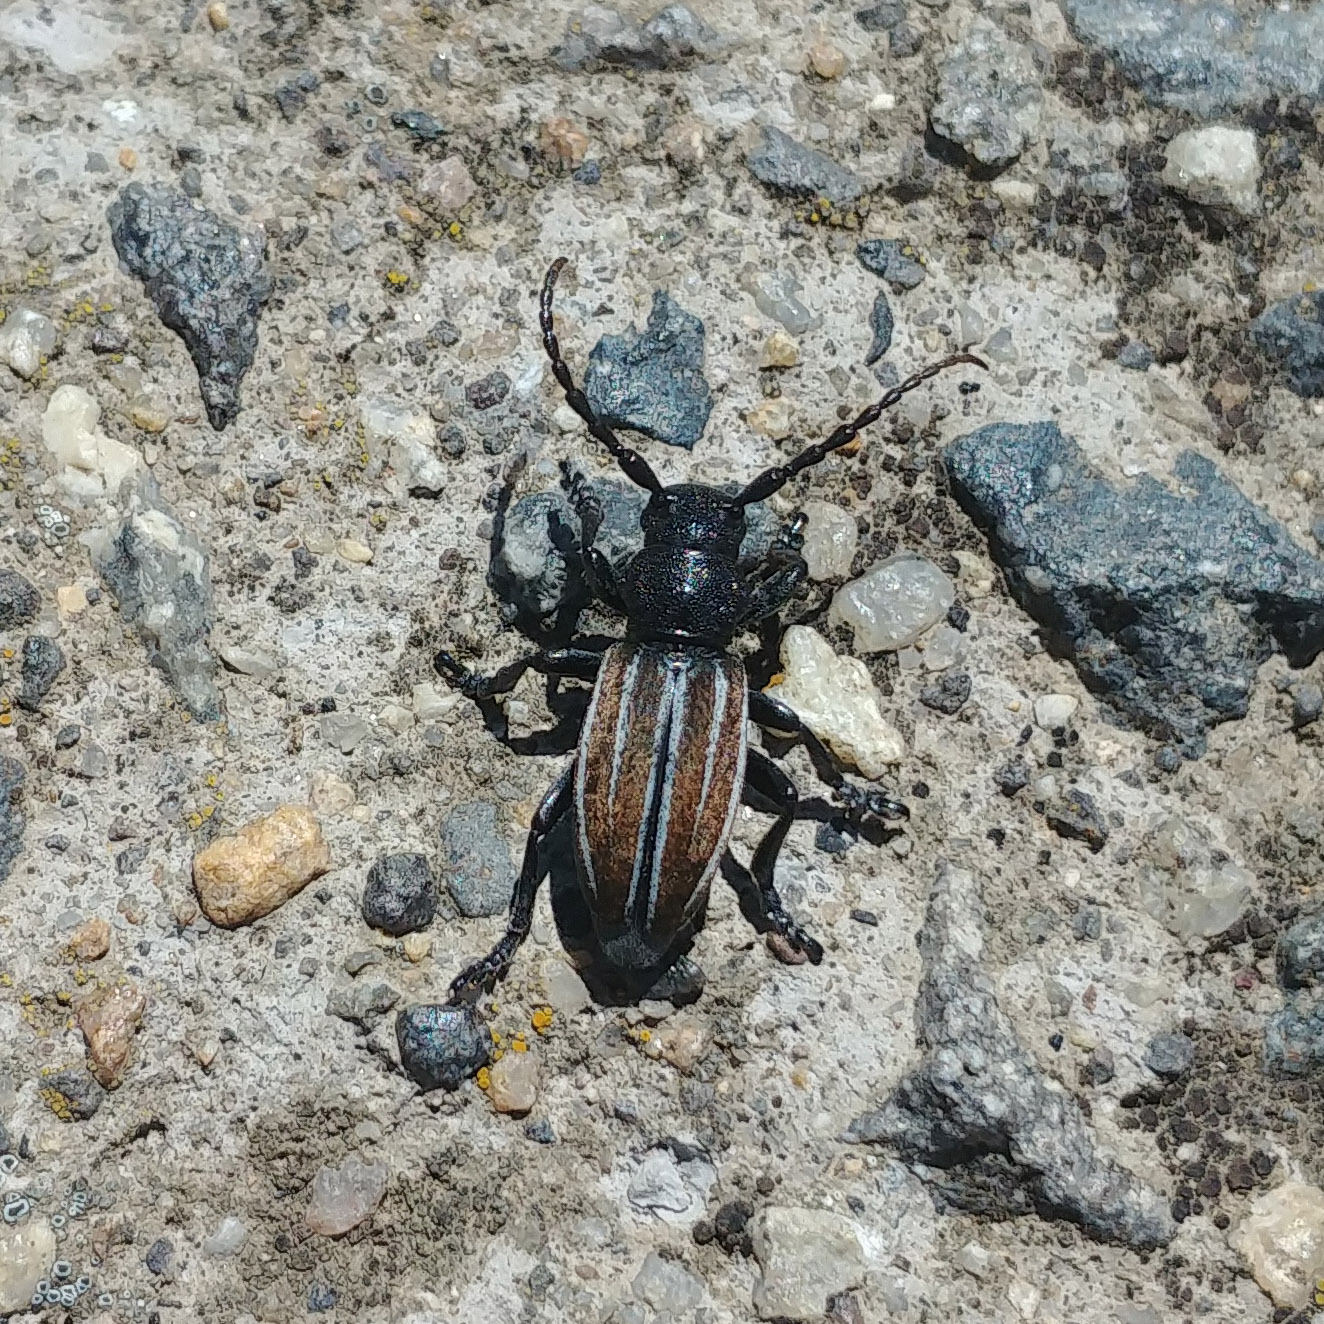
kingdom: Animalia
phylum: Arthropoda
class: Insecta
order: Coleoptera
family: Cerambycidae
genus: Iberodorcadion
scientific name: Iberodorcadion fuliginator
